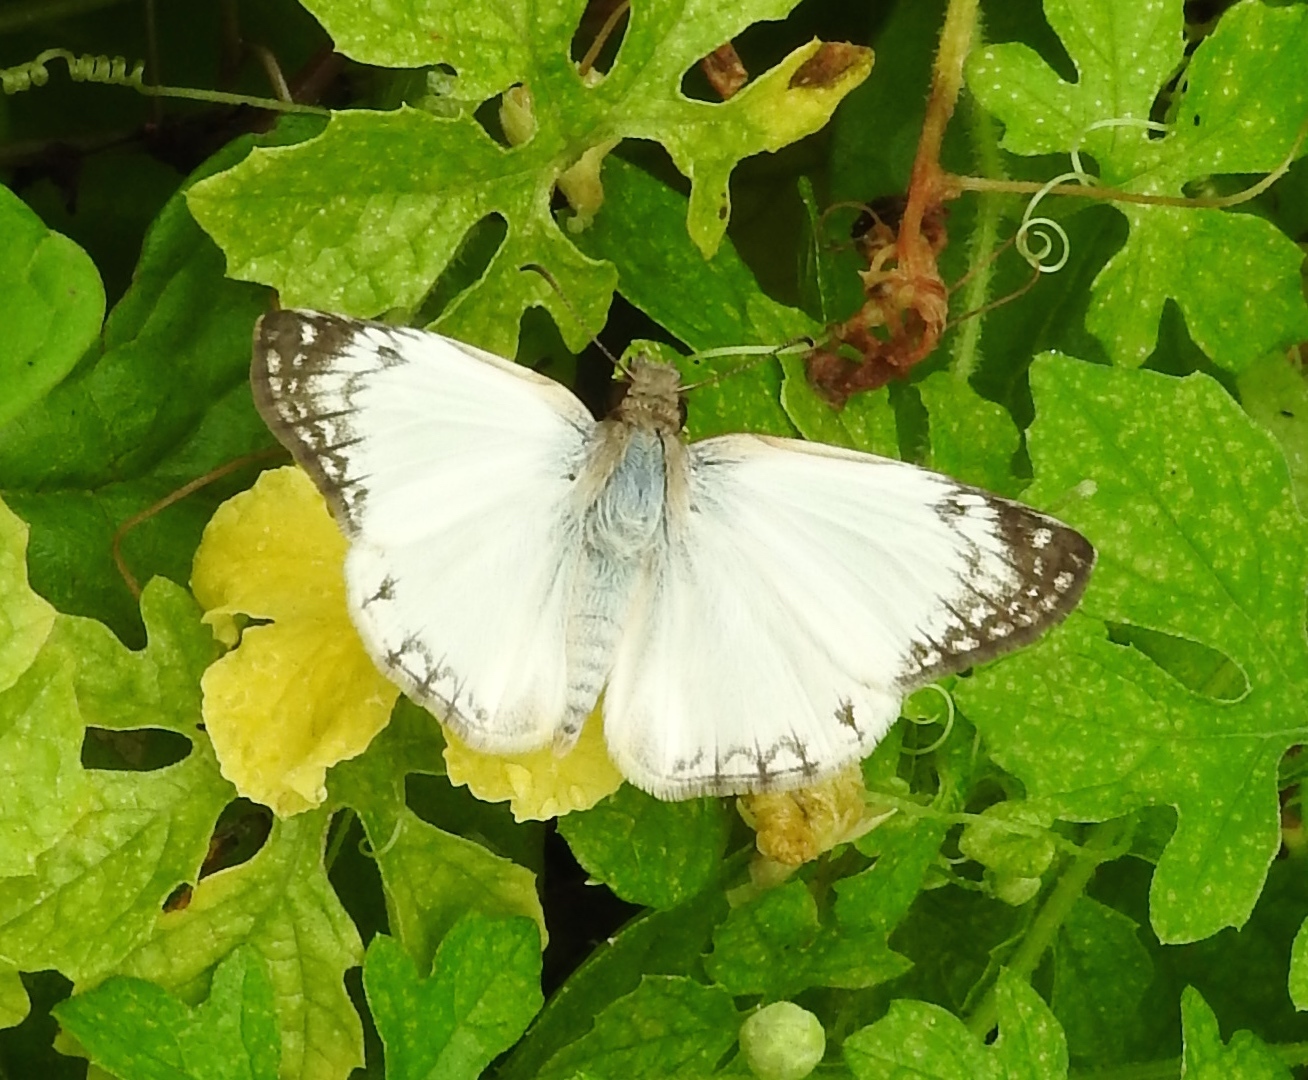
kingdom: Animalia
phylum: Arthropoda
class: Insecta
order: Lepidoptera
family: Hesperiidae
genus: Heliopetes
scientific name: Heliopetes laviana
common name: Laviana white-skipper
